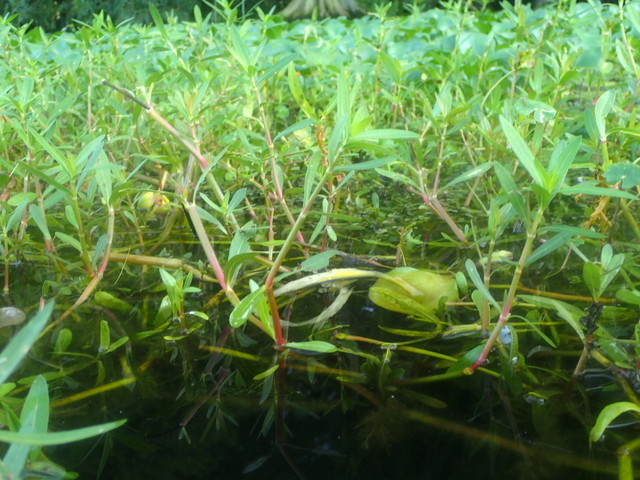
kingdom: Plantae
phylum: Tracheophyta
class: Magnoliopsida
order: Caryophyllales
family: Amaranthaceae
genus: Alternanthera
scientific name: Alternanthera philoxeroides
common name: Alligatorweed
